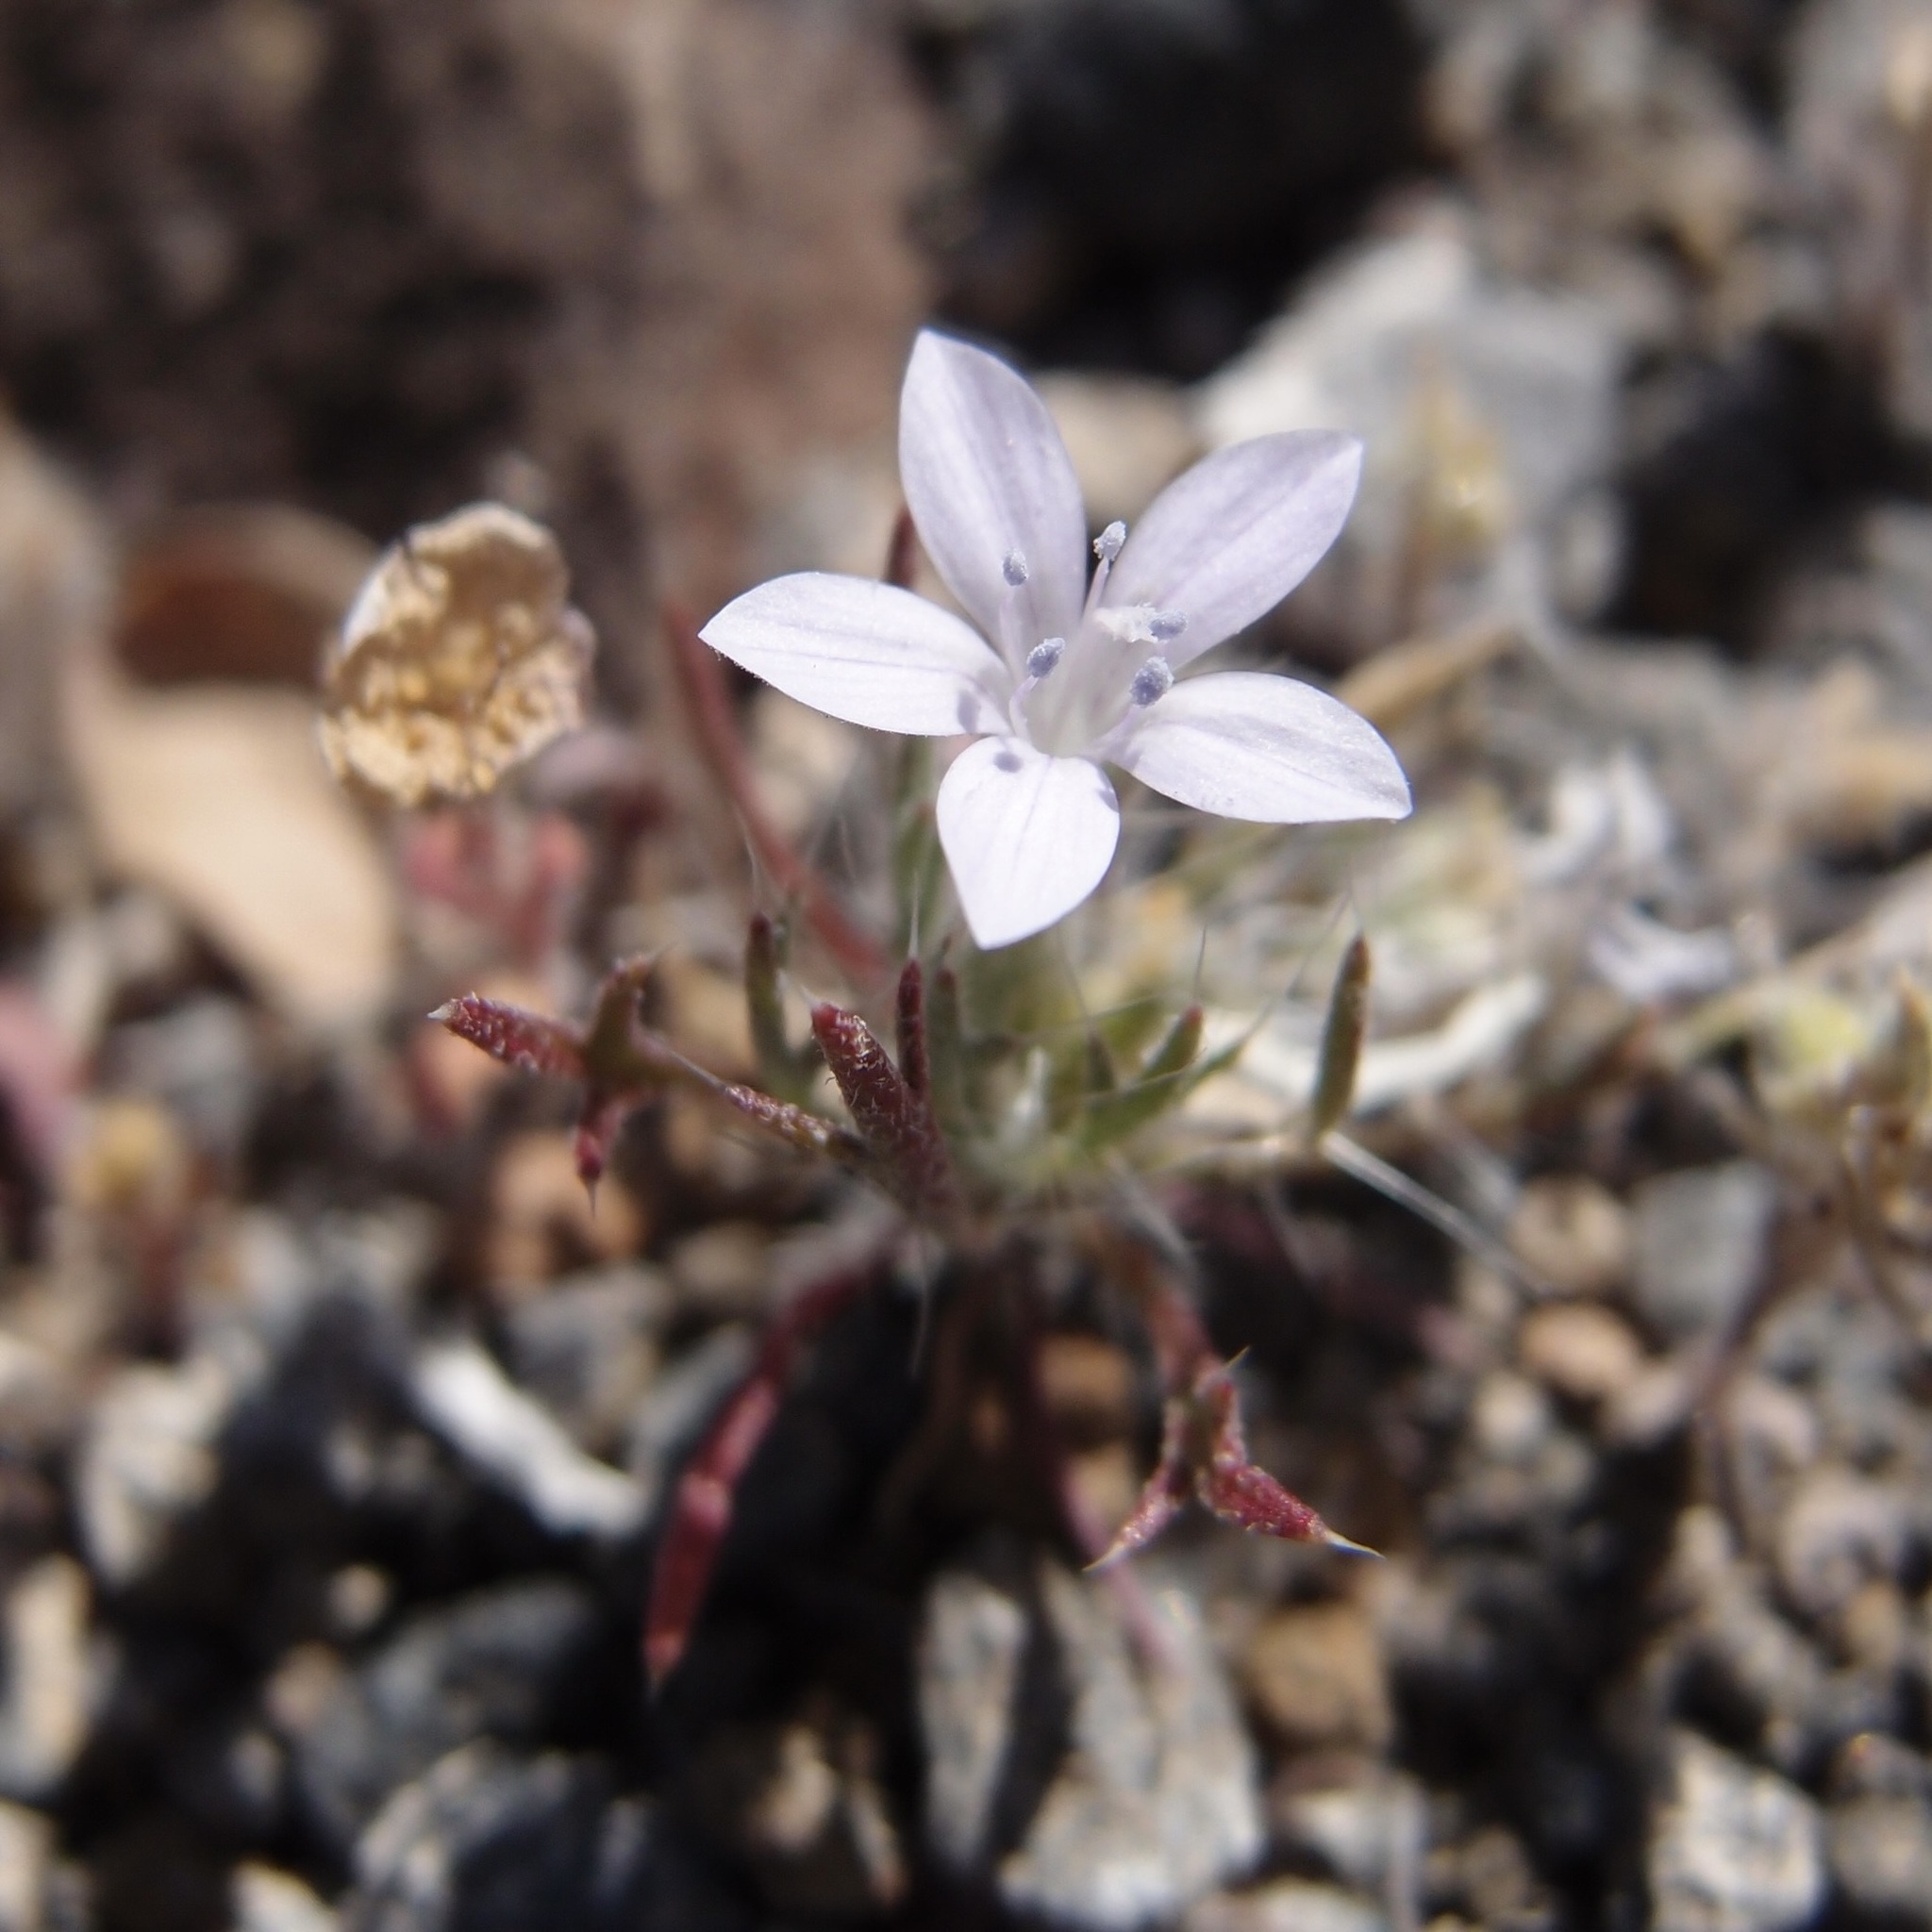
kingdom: Plantae
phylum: Tracheophyta
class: Magnoliopsida
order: Ericales
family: Polemoniaceae
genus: Langloisia
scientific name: Langloisia setosissima
